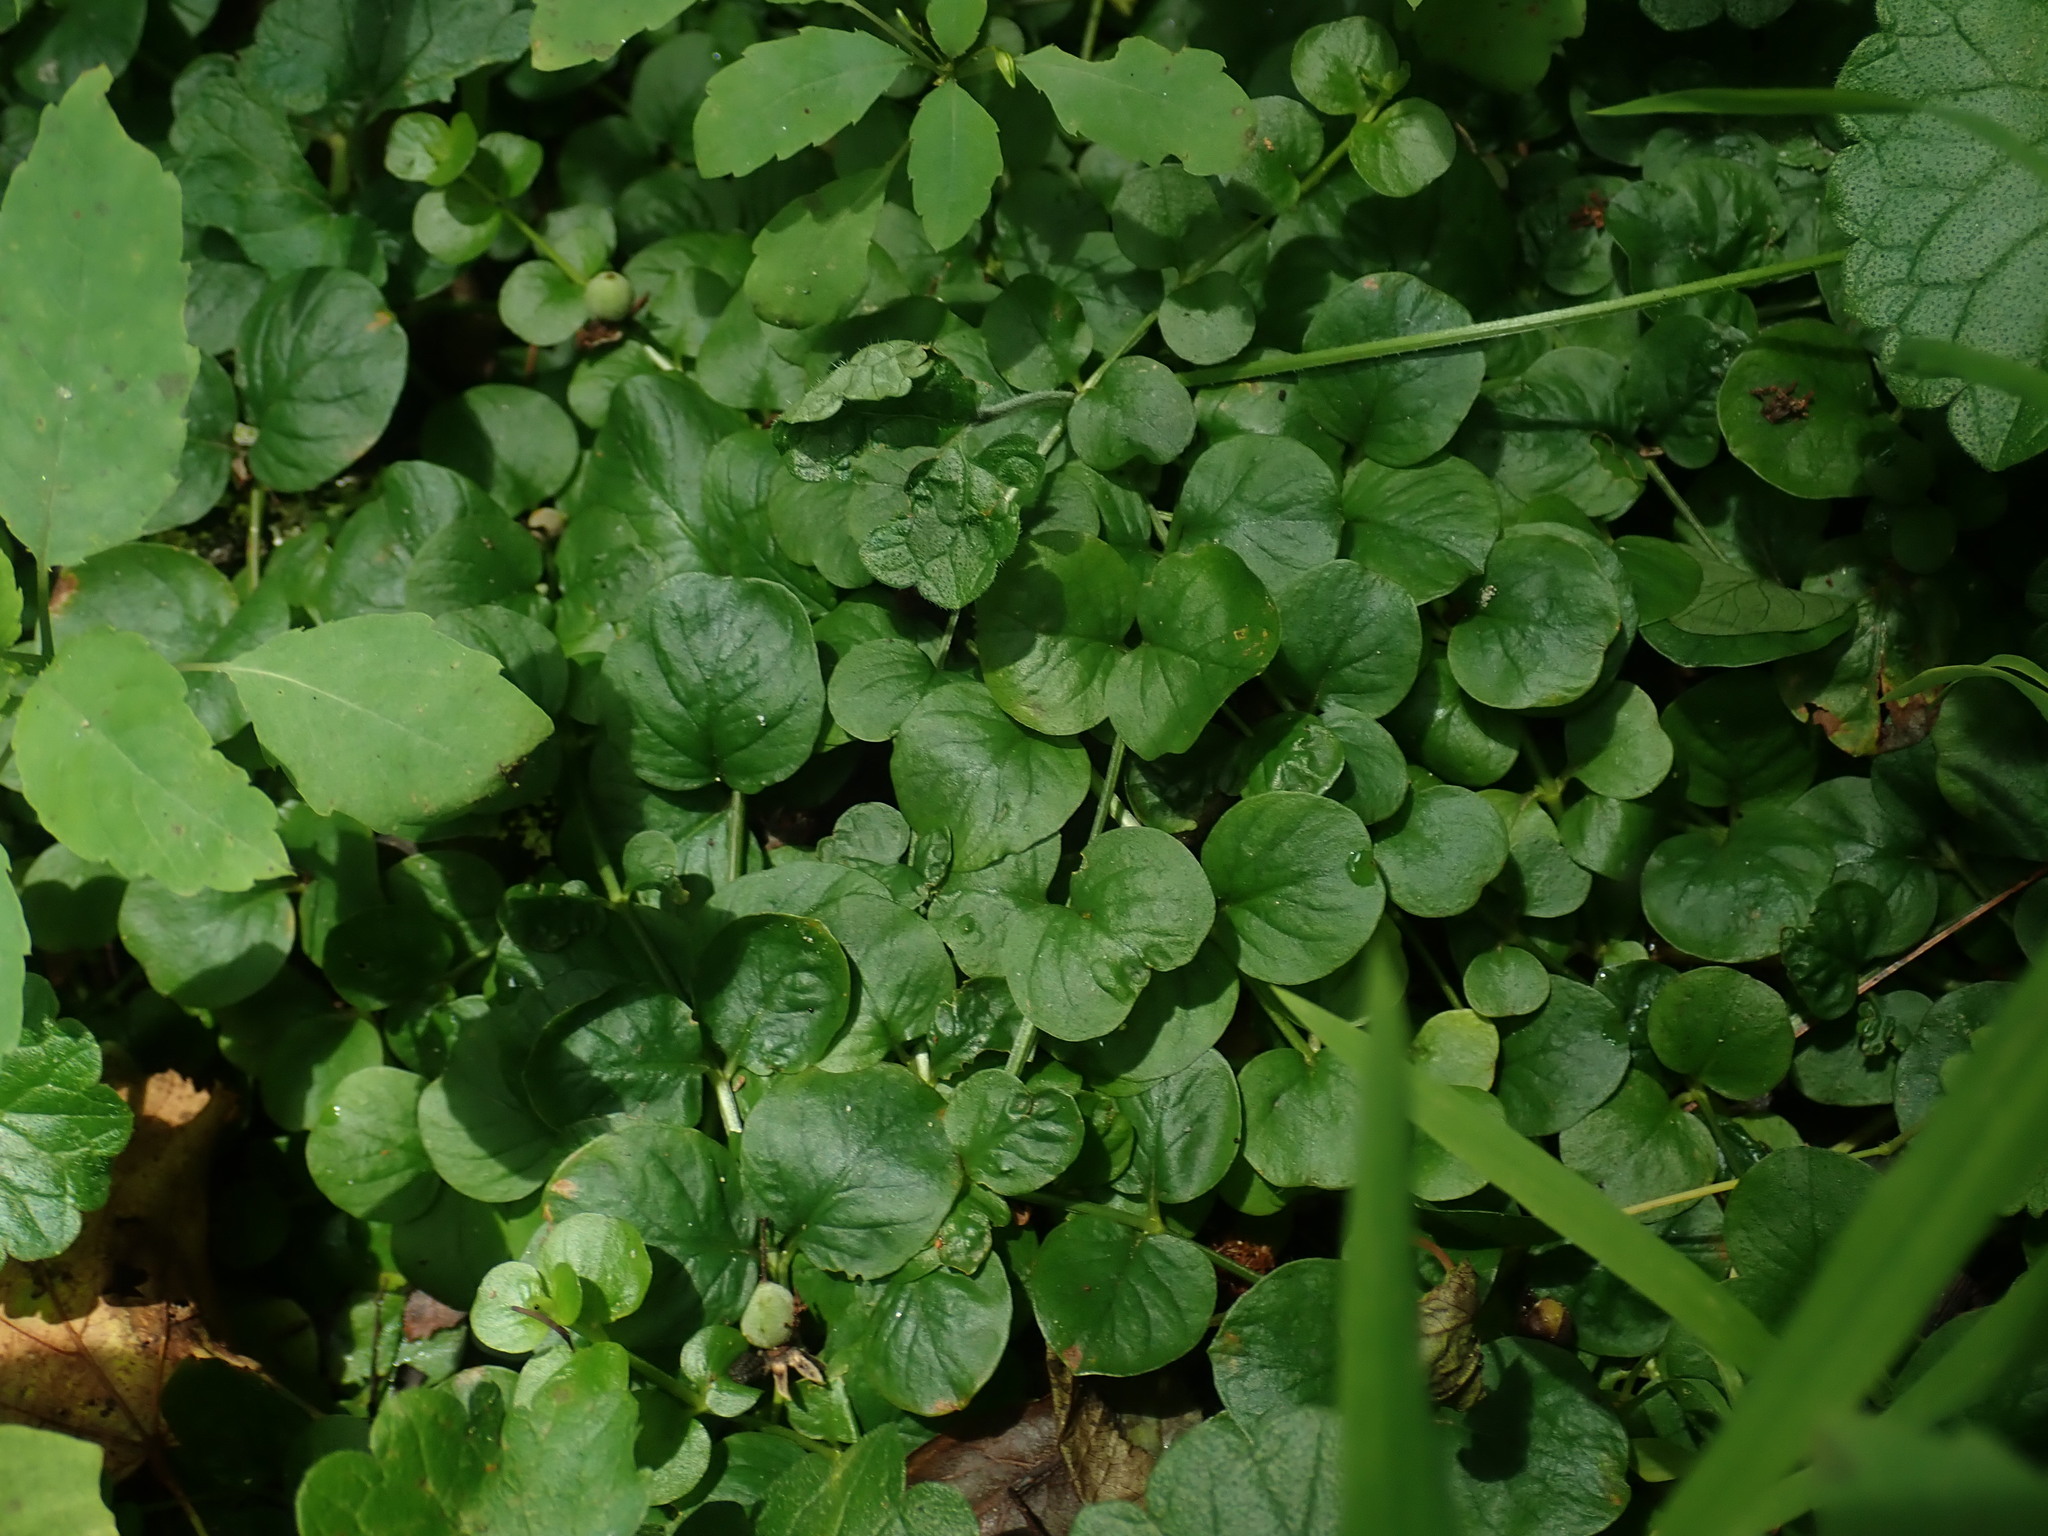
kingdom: Plantae
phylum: Tracheophyta
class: Magnoliopsida
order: Ericales
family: Primulaceae
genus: Lysimachia
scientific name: Lysimachia nummularia
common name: Moneywort
